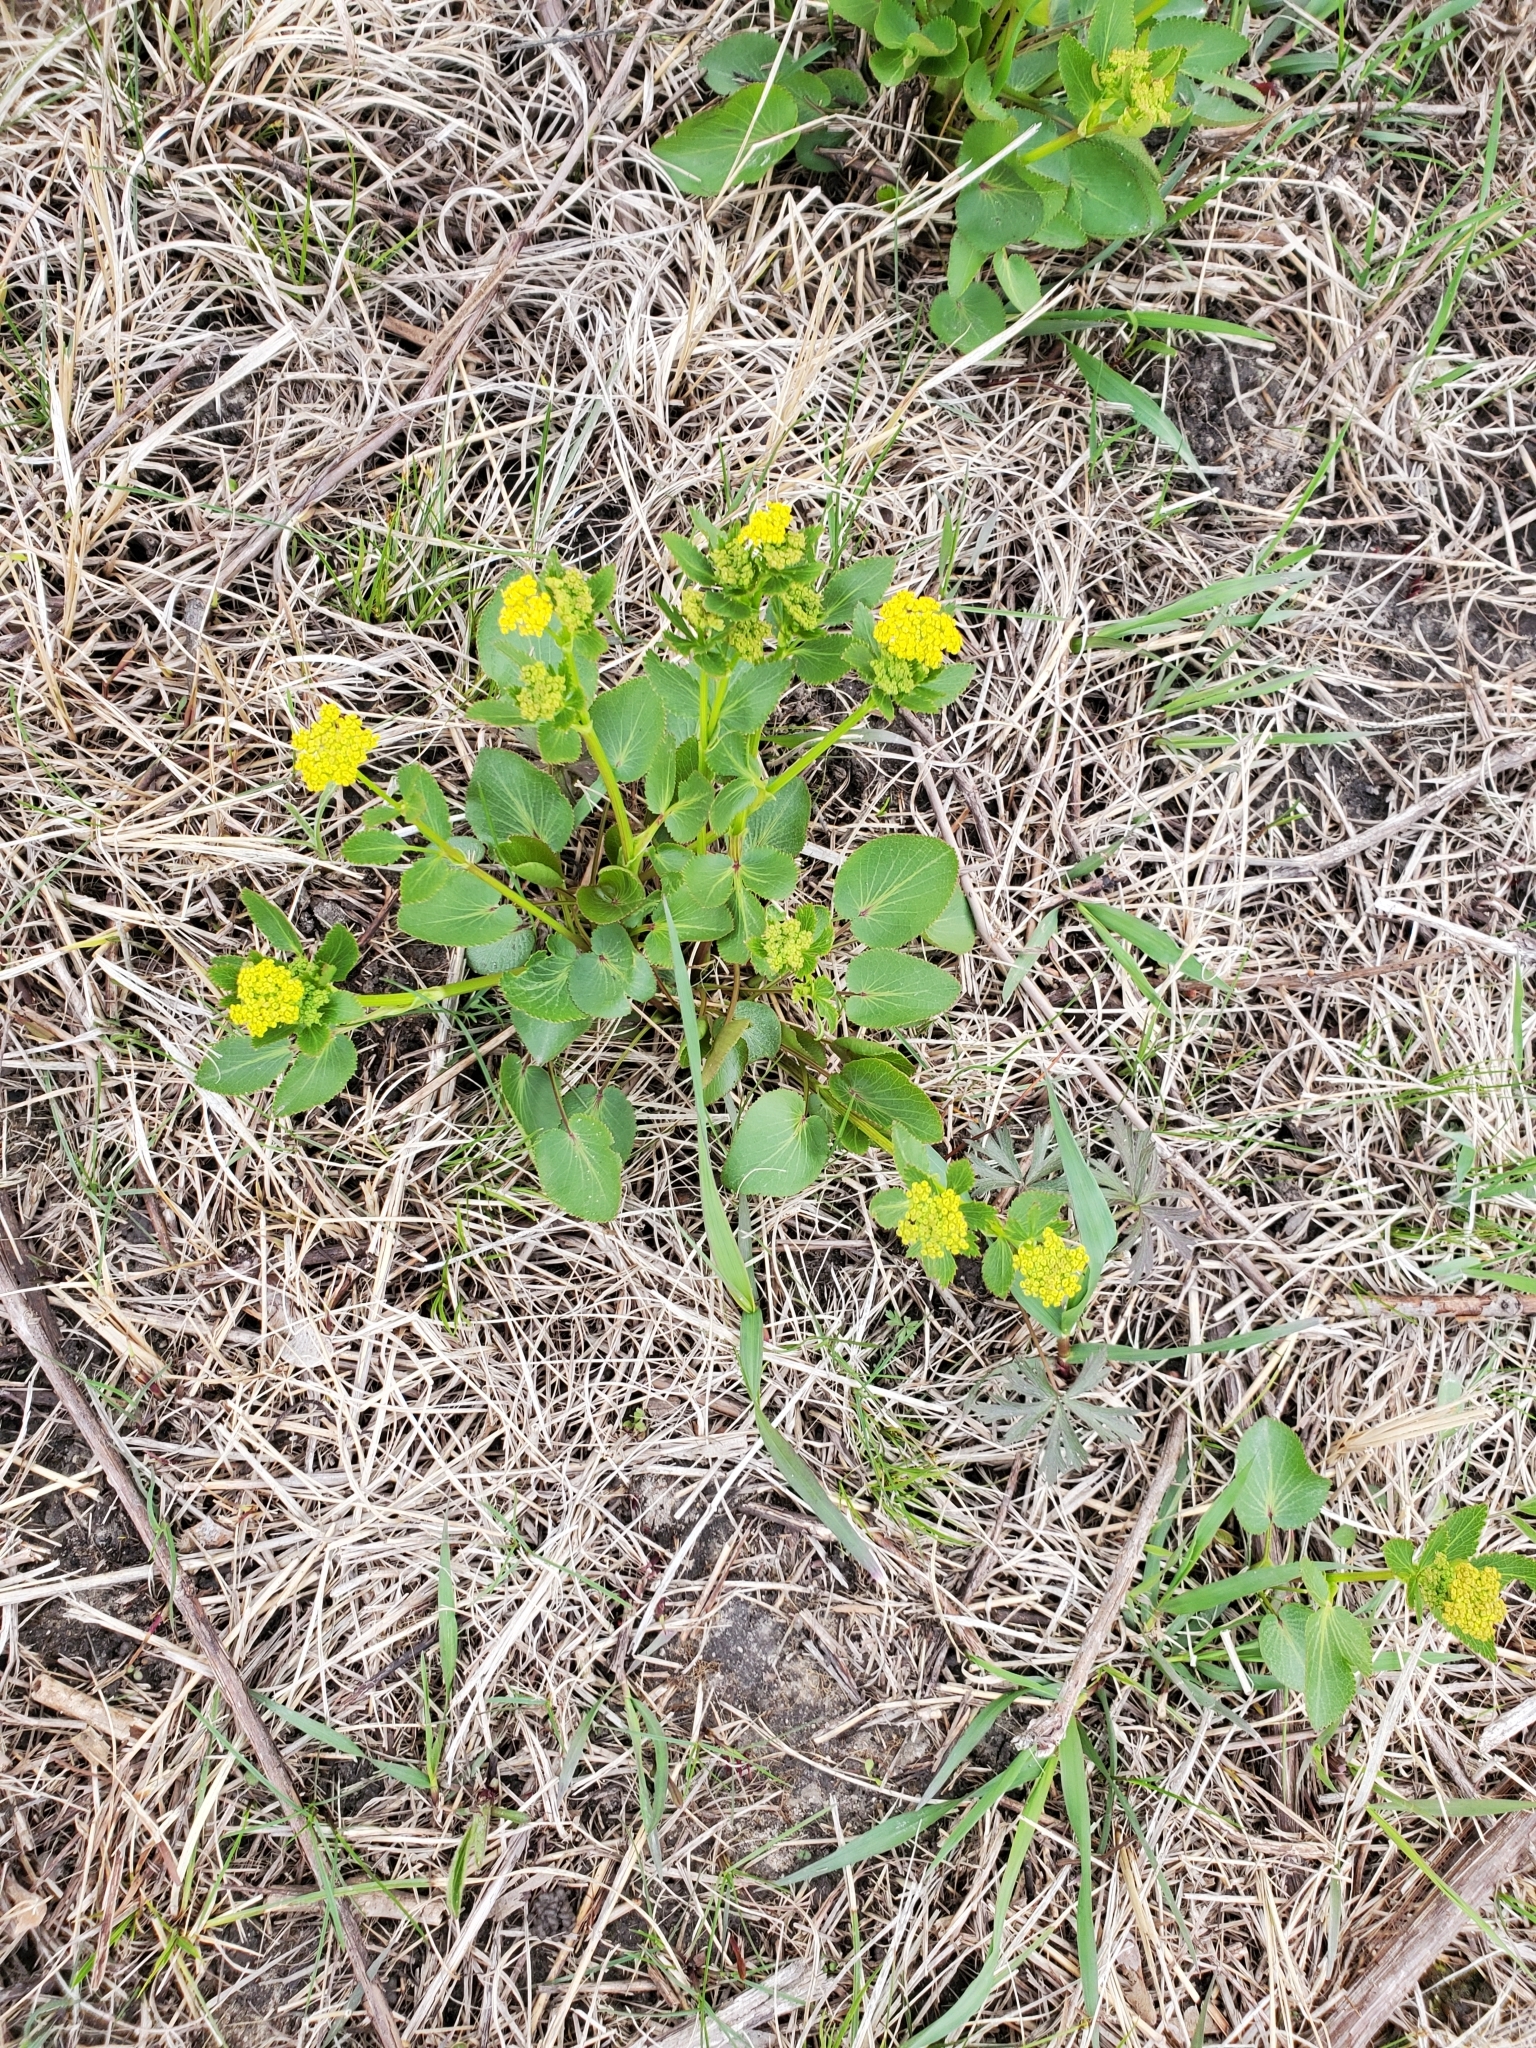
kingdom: Plantae
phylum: Tracheophyta
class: Magnoliopsida
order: Apiales
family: Apiaceae
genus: Zizia
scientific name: Zizia aptera
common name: Heart-leaved alexanders
